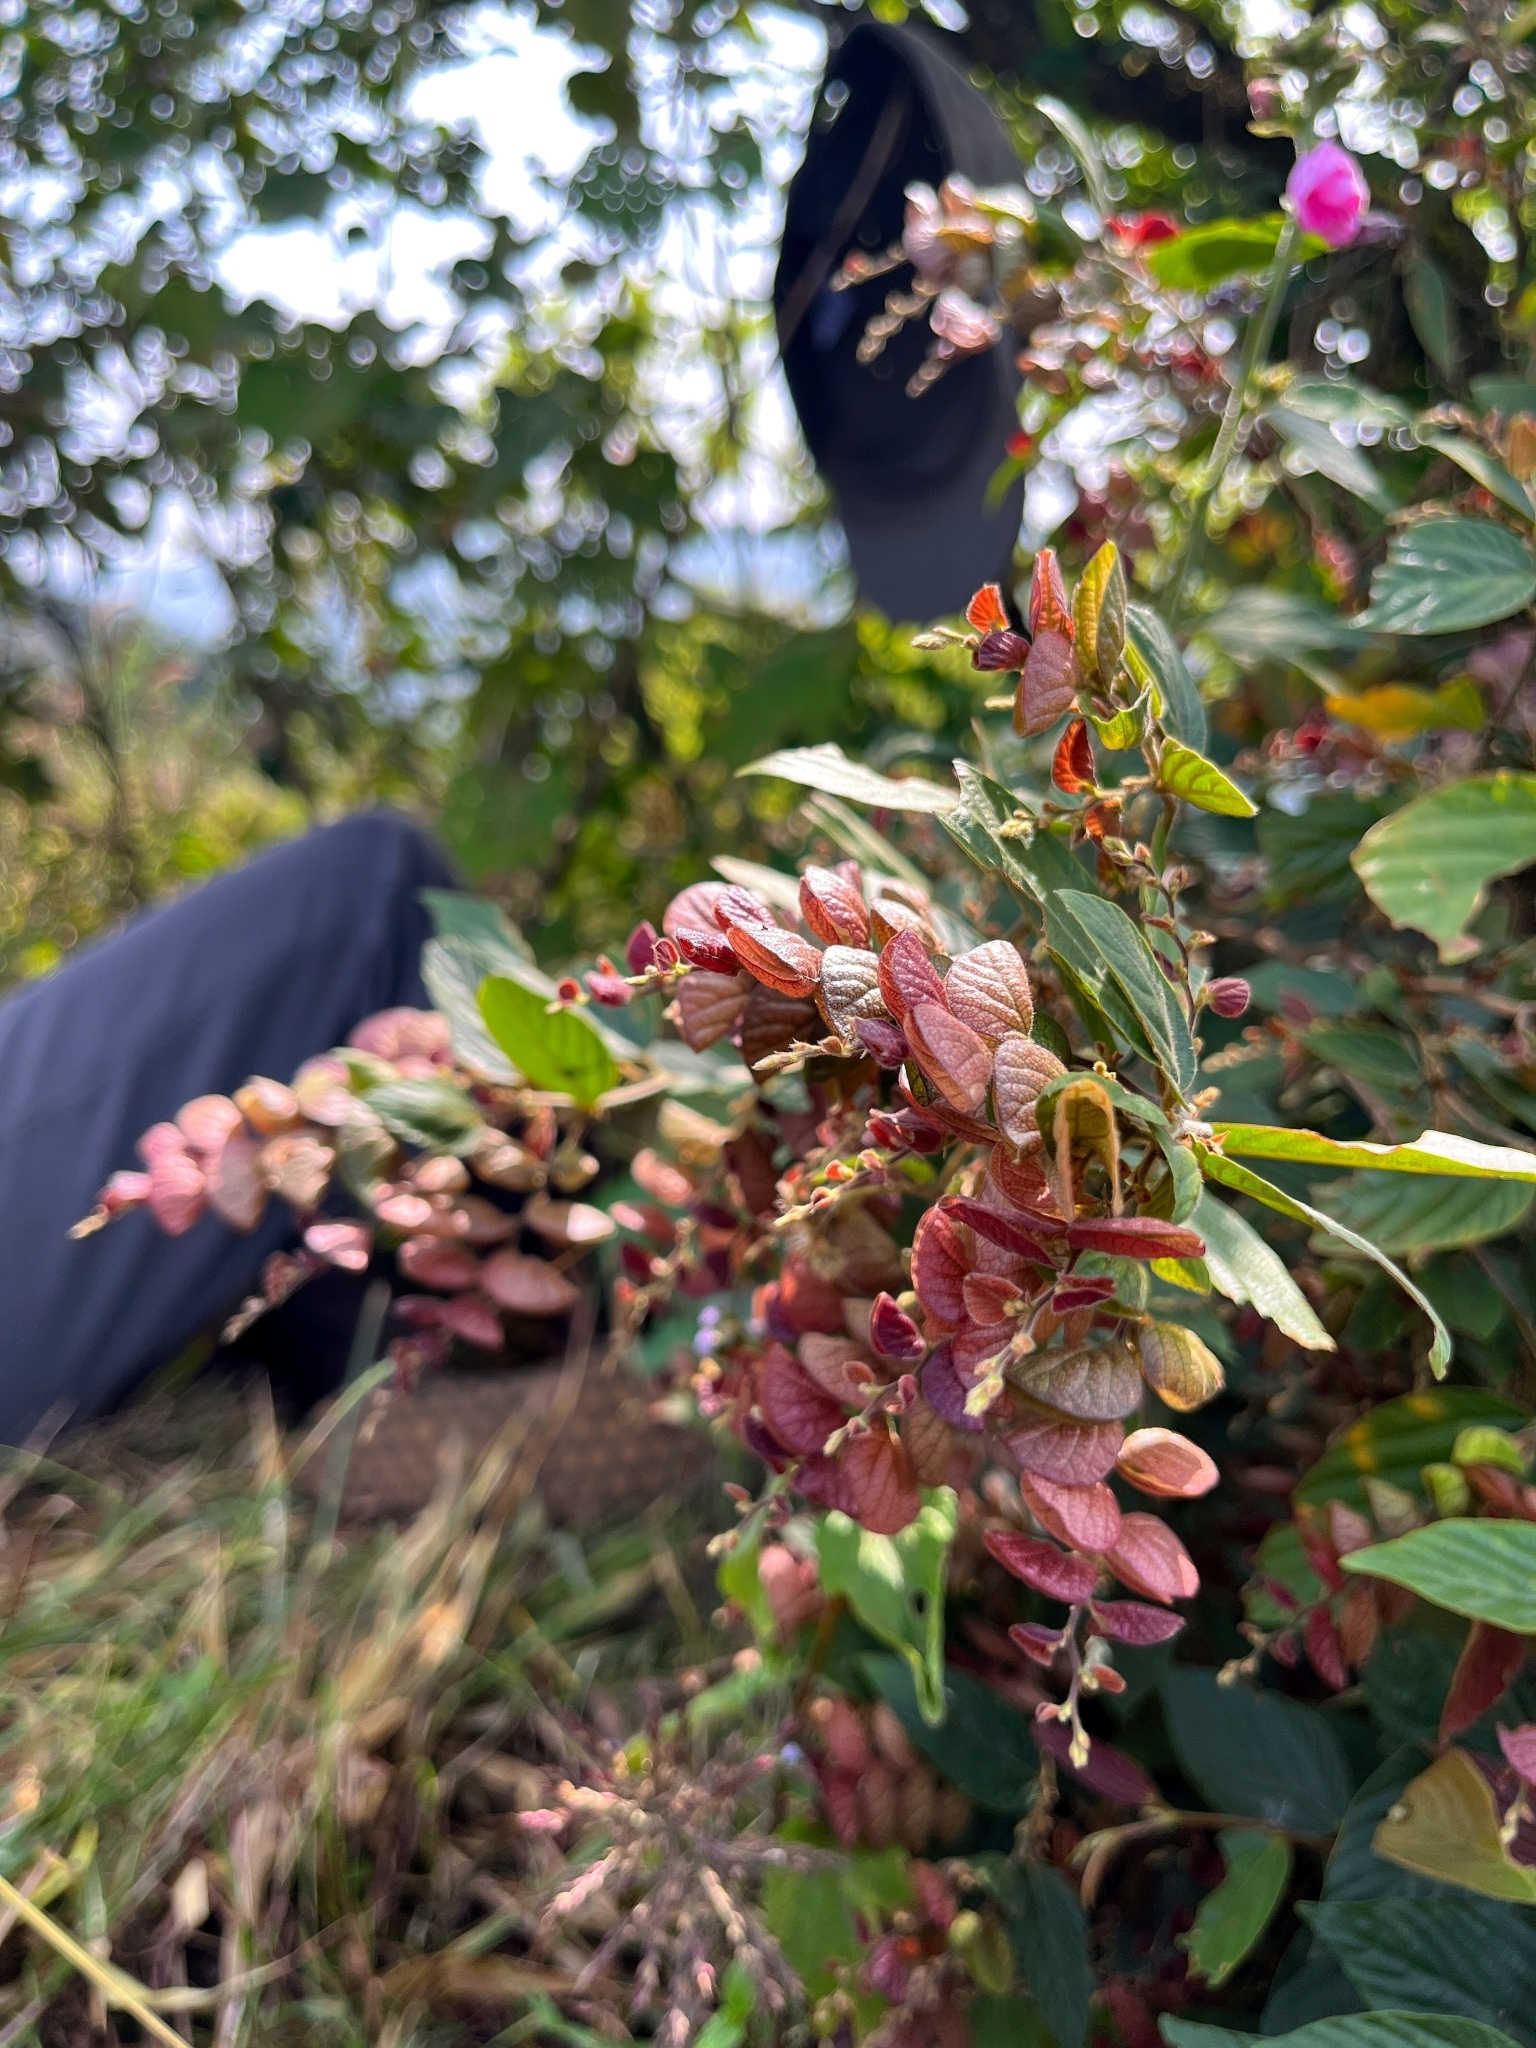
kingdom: Plantae
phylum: Tracheophyta
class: Magnoliopsida
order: Fabales
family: Fabaceae
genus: Flemingia
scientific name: Flemingia strobilifera
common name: Wild hops
